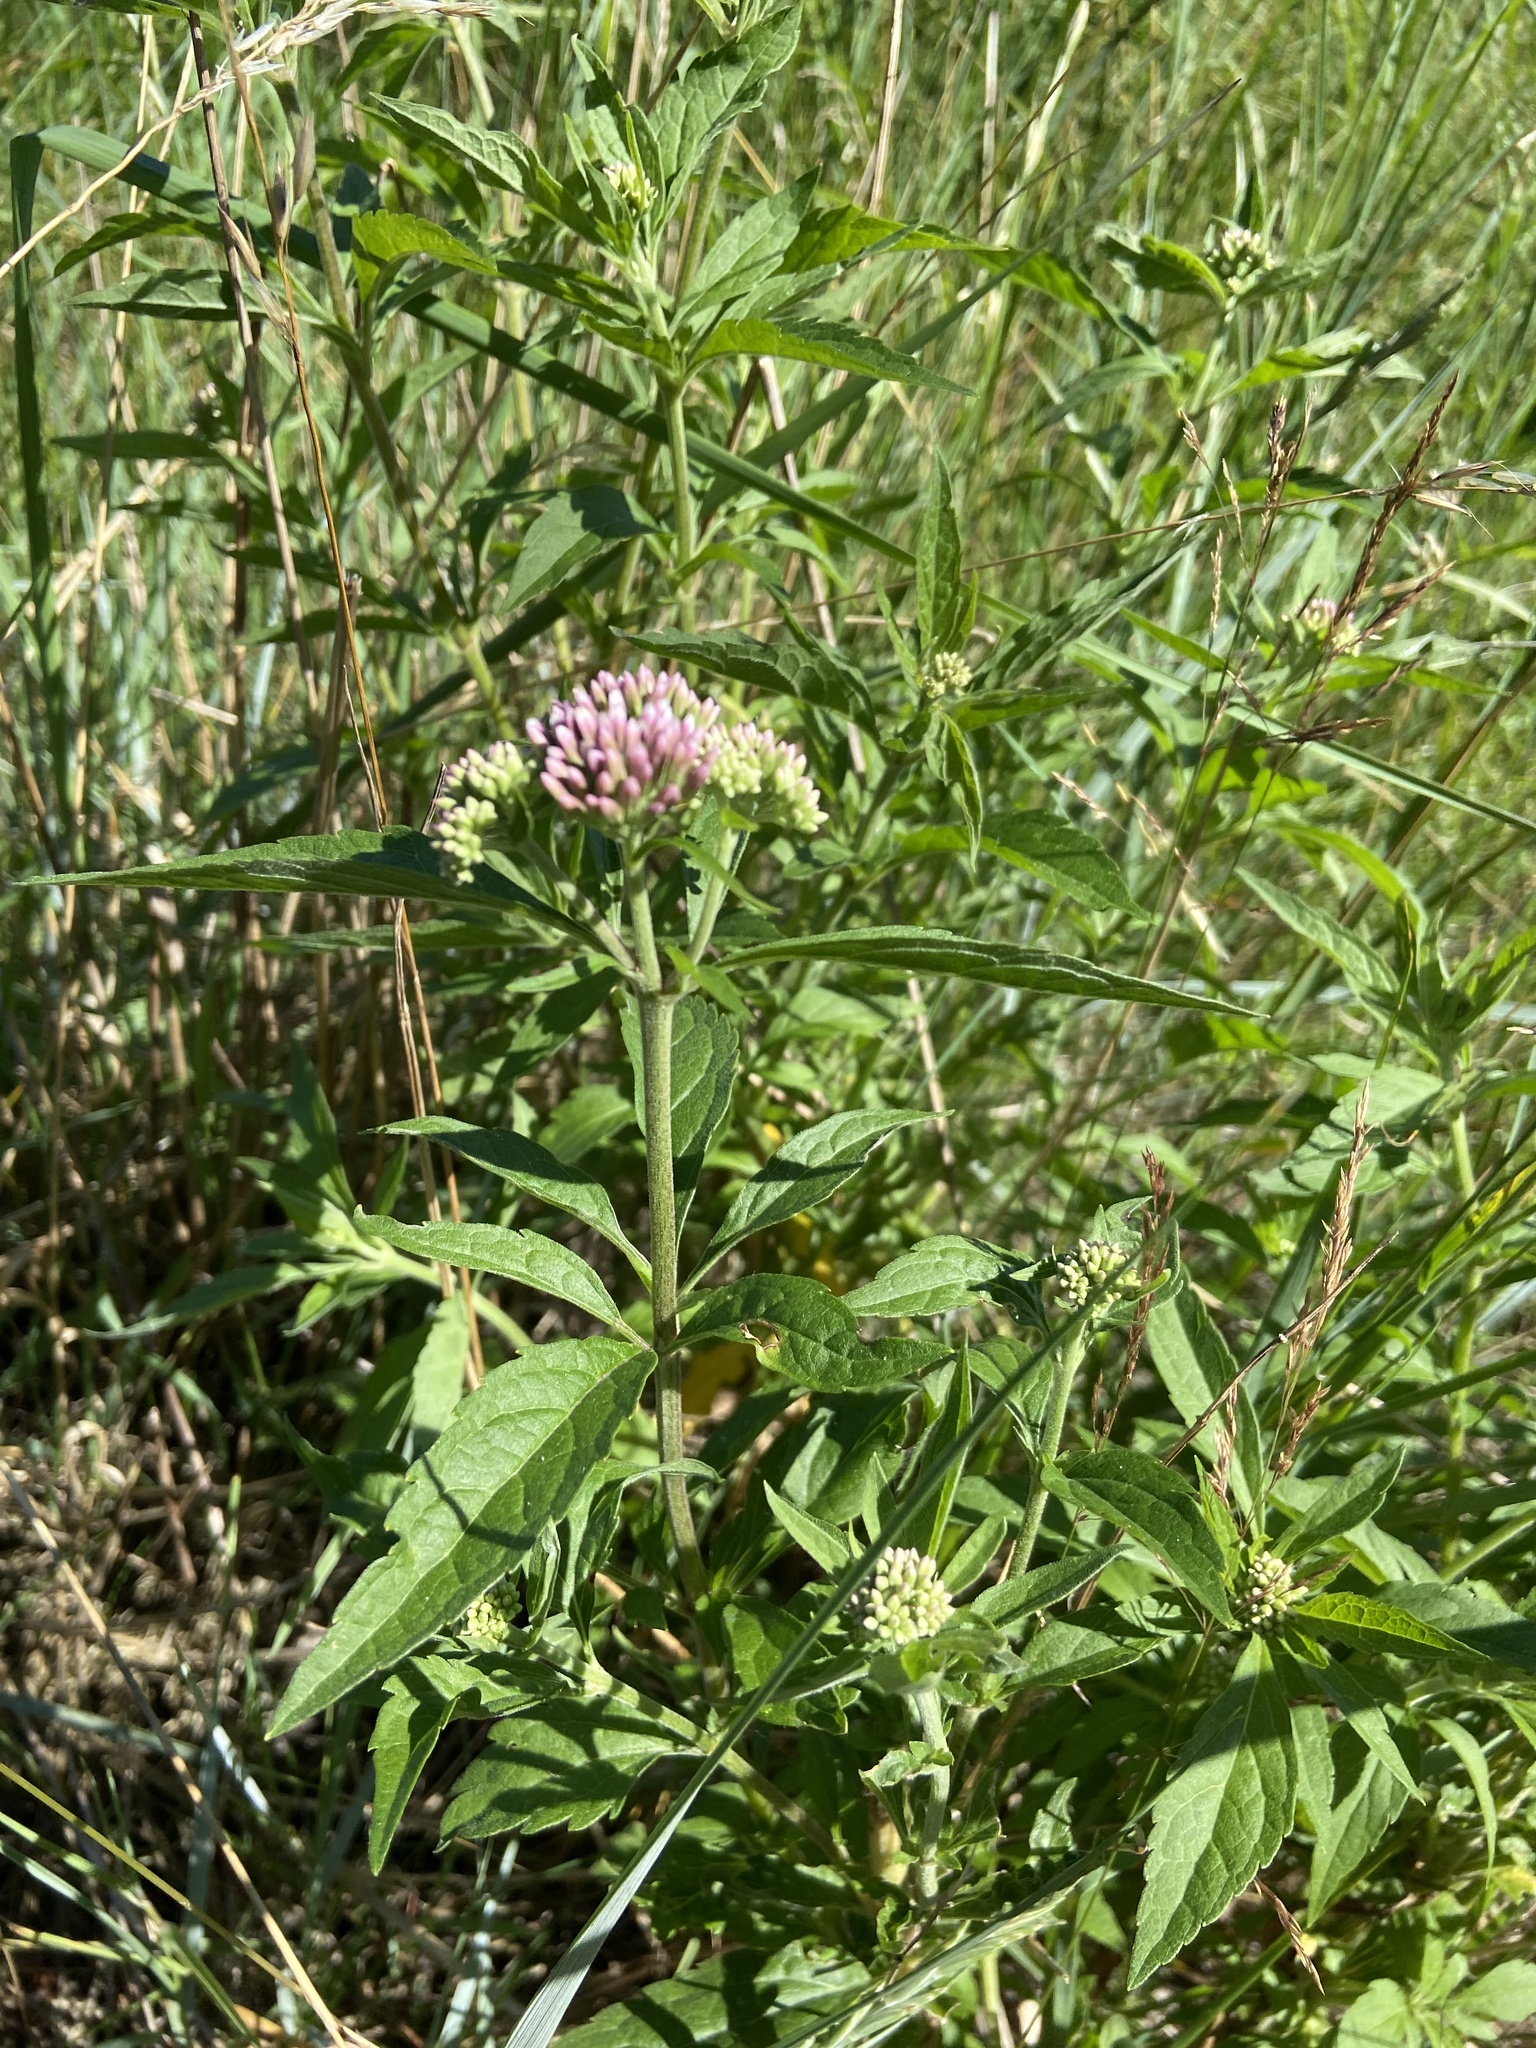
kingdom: Plantae
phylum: Tracheophyta
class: Magnoliopsida
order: Asterales
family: Asteraceae
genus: Eupatorium
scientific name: Eupatorium cannabinum
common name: Hemp-agrimony
